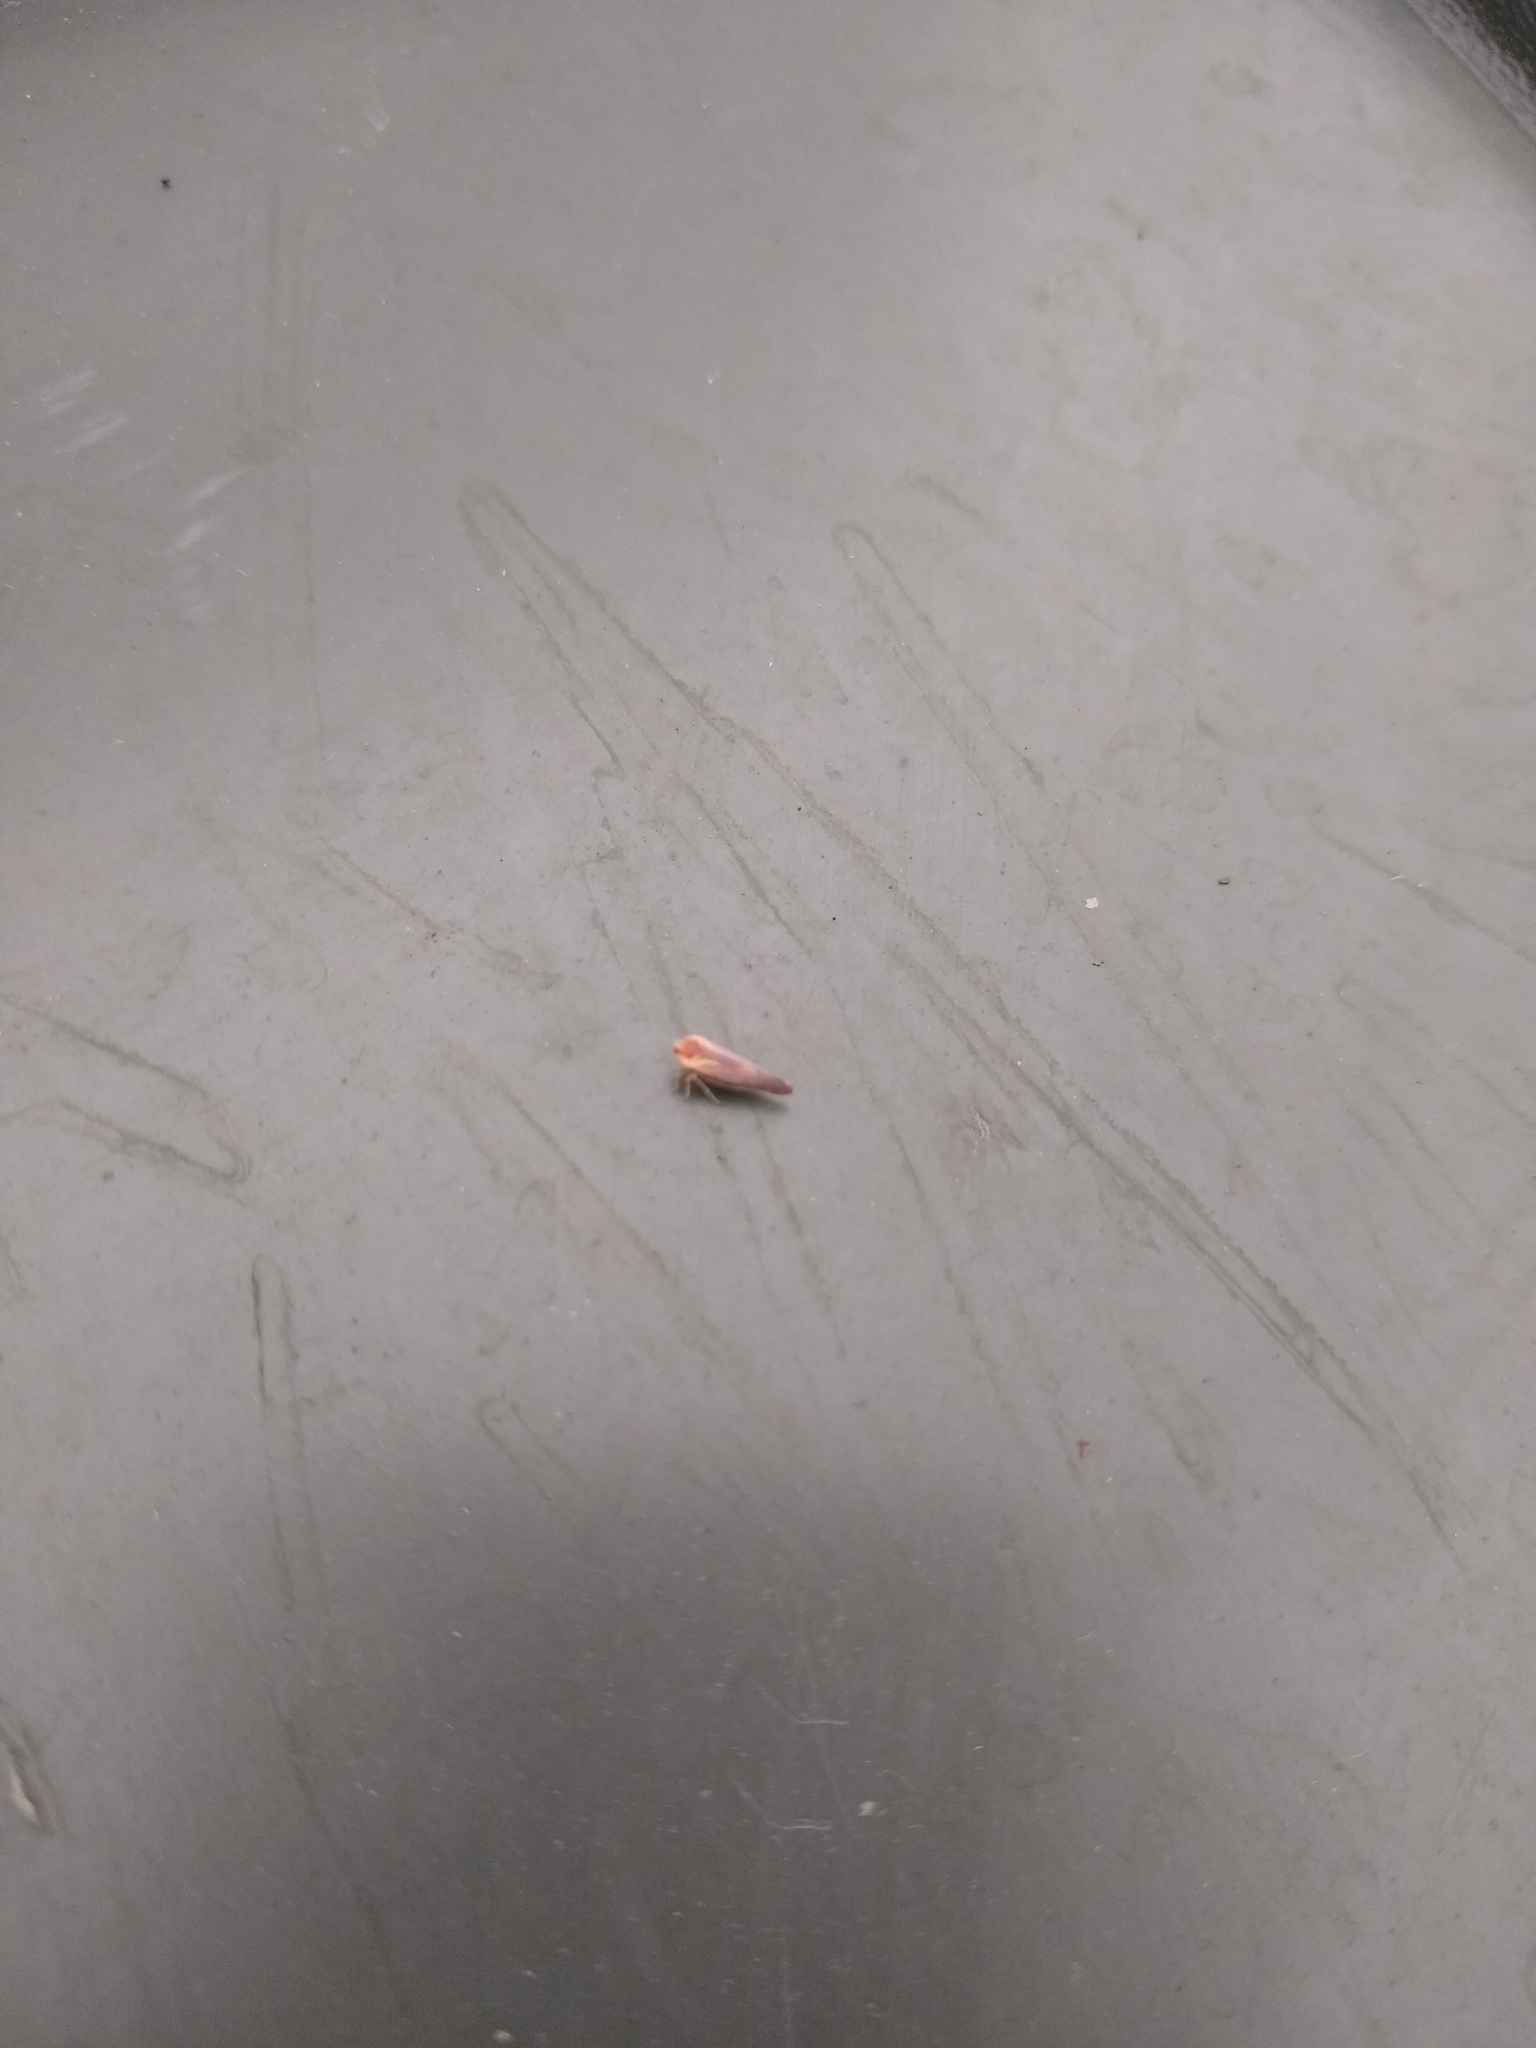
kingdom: Animalia
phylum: Arthropoda
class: Insecta
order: Hemiptera
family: Derbidae
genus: Omolicna
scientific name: Omolicna uhleri
